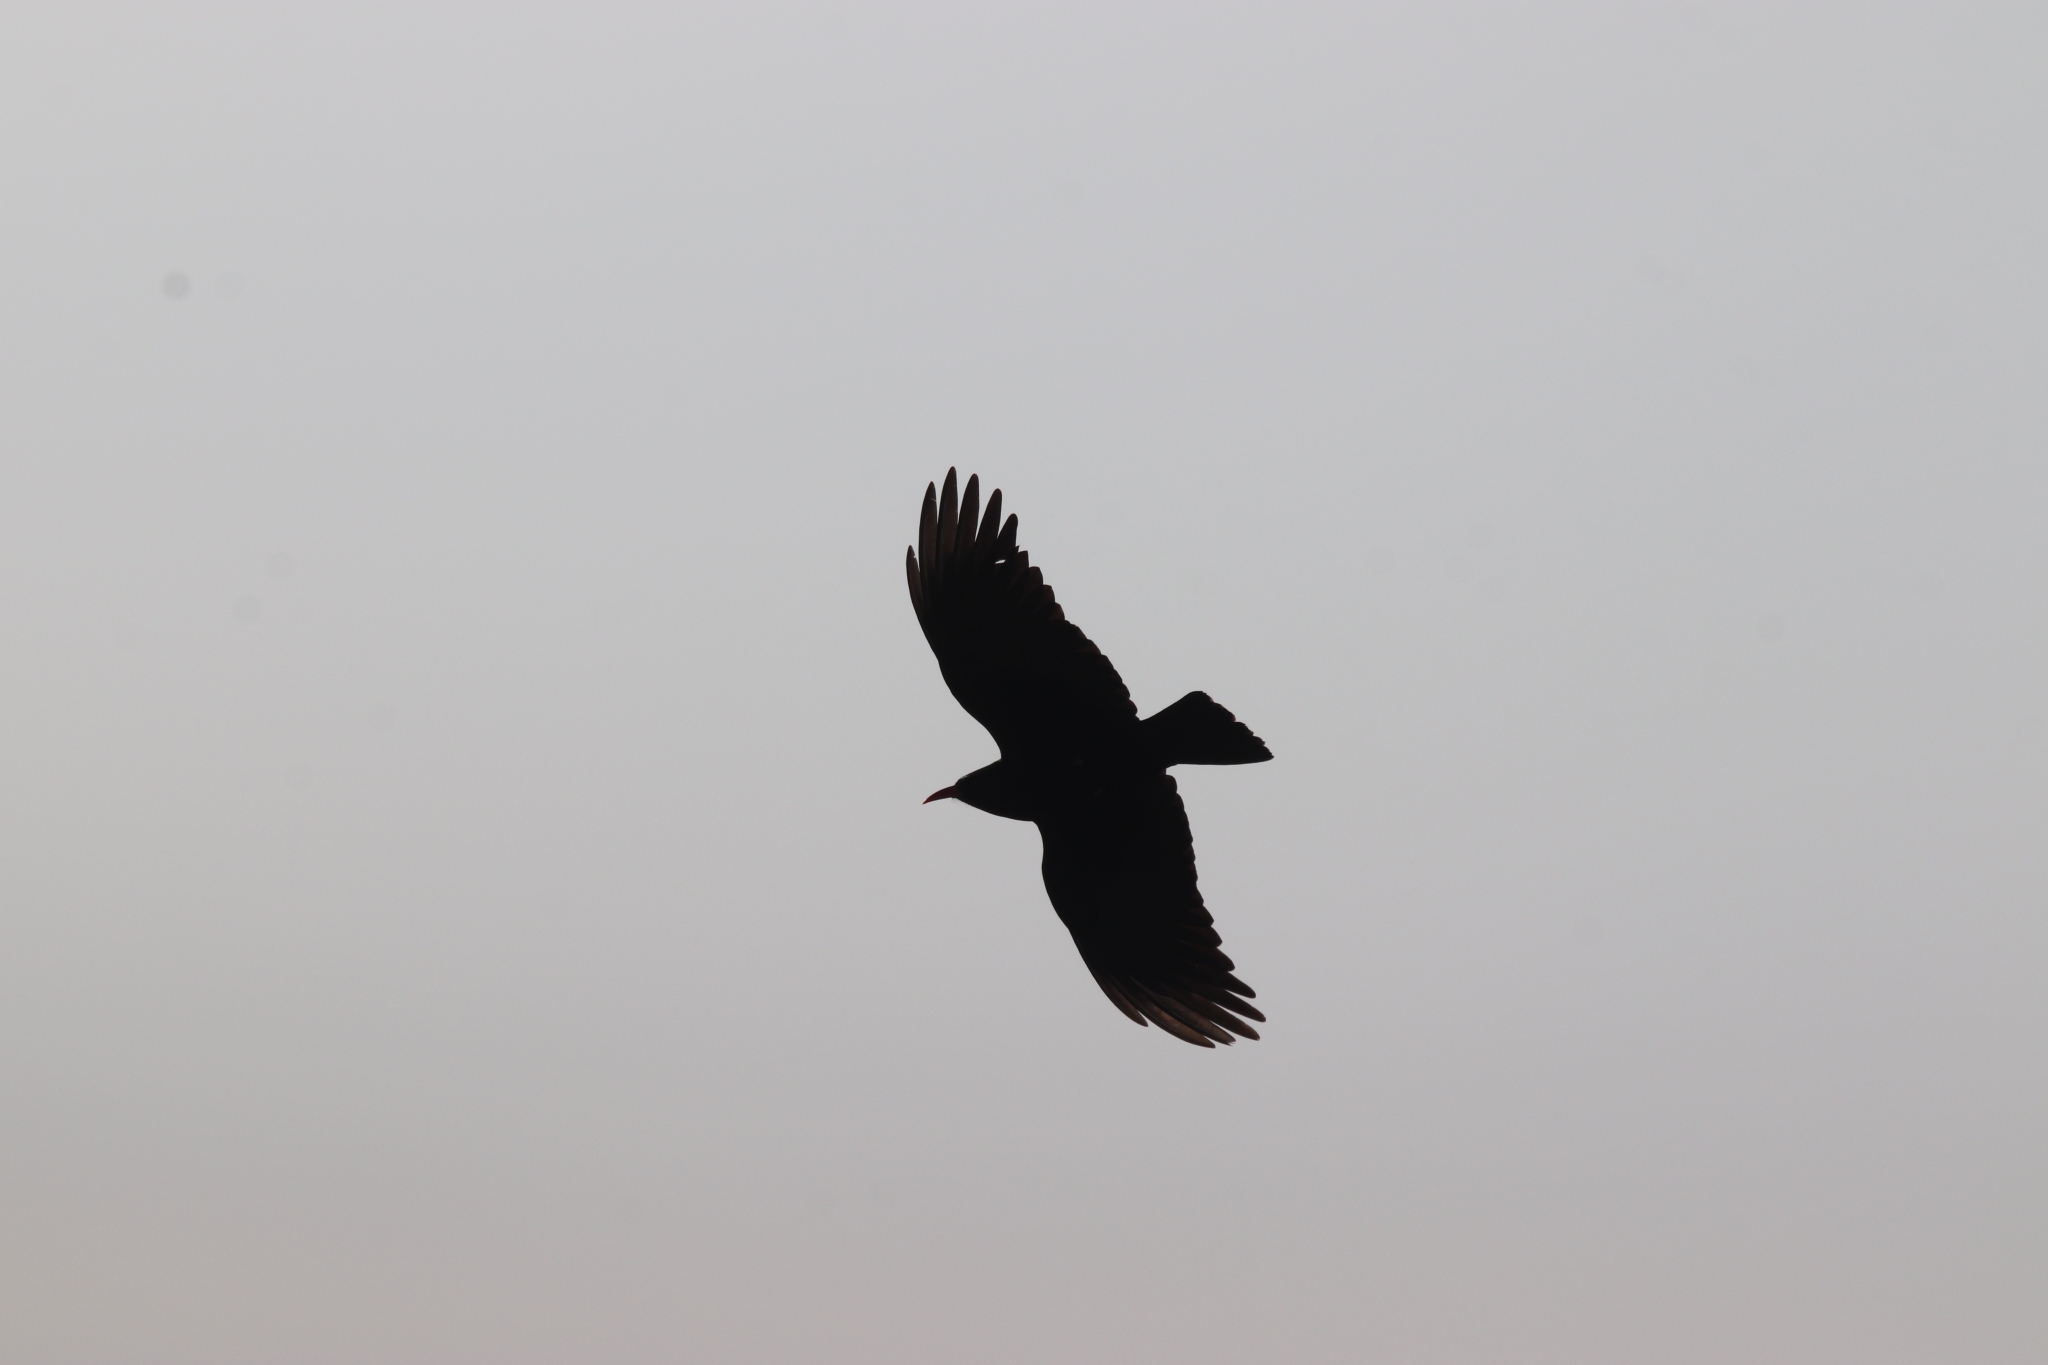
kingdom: Animalia
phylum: Chordata
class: Aves
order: Passeriformes
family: Corvidae
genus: Pyrrhocorax
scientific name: Pyrrhocorax pyrrhocorax
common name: Red-billed chough
